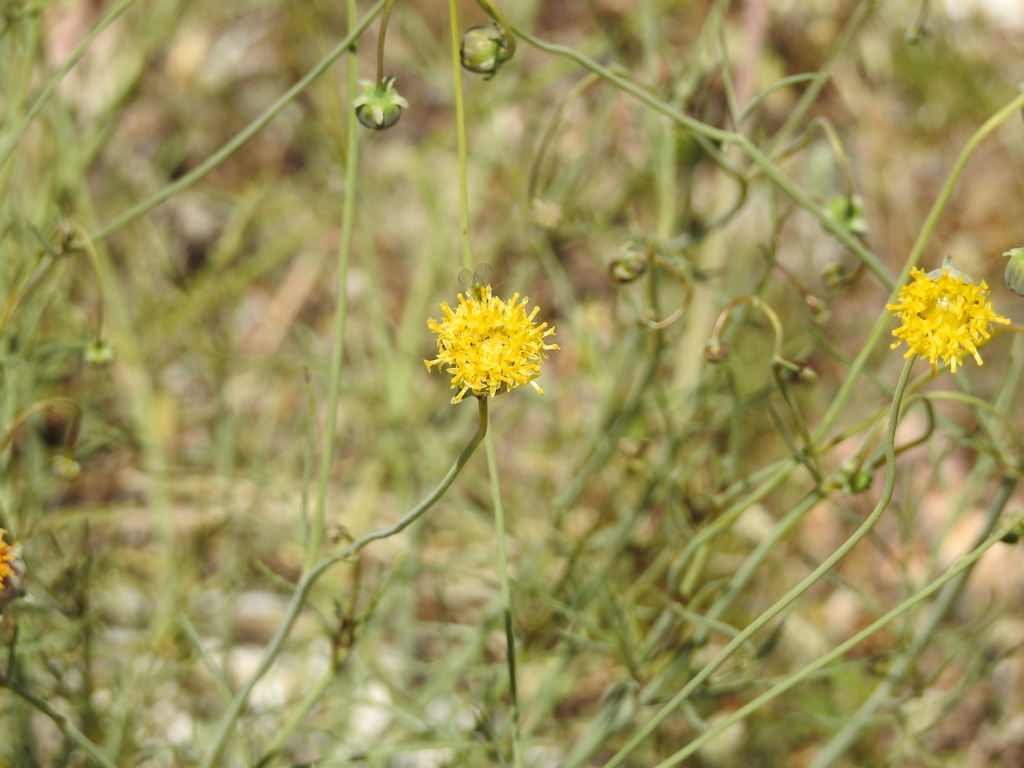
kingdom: Plantae
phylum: Tracheophyta
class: Magnoliopsida
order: Asterales
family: Asteraceae
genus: Thelesperma
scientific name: Thelesperma megapotamicum
